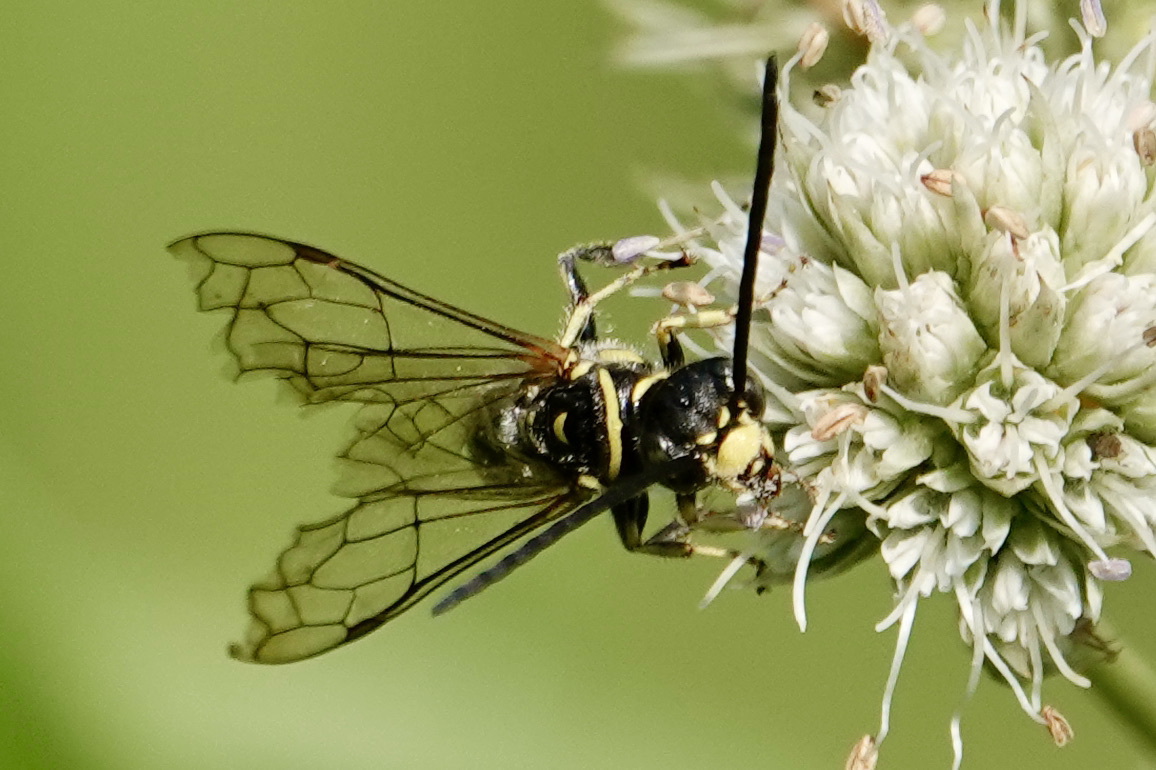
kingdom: Animalia
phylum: Arthropoda
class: Insecta
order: Hymenoptera
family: Tiphiidae
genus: Myzinum
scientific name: Myzinum
